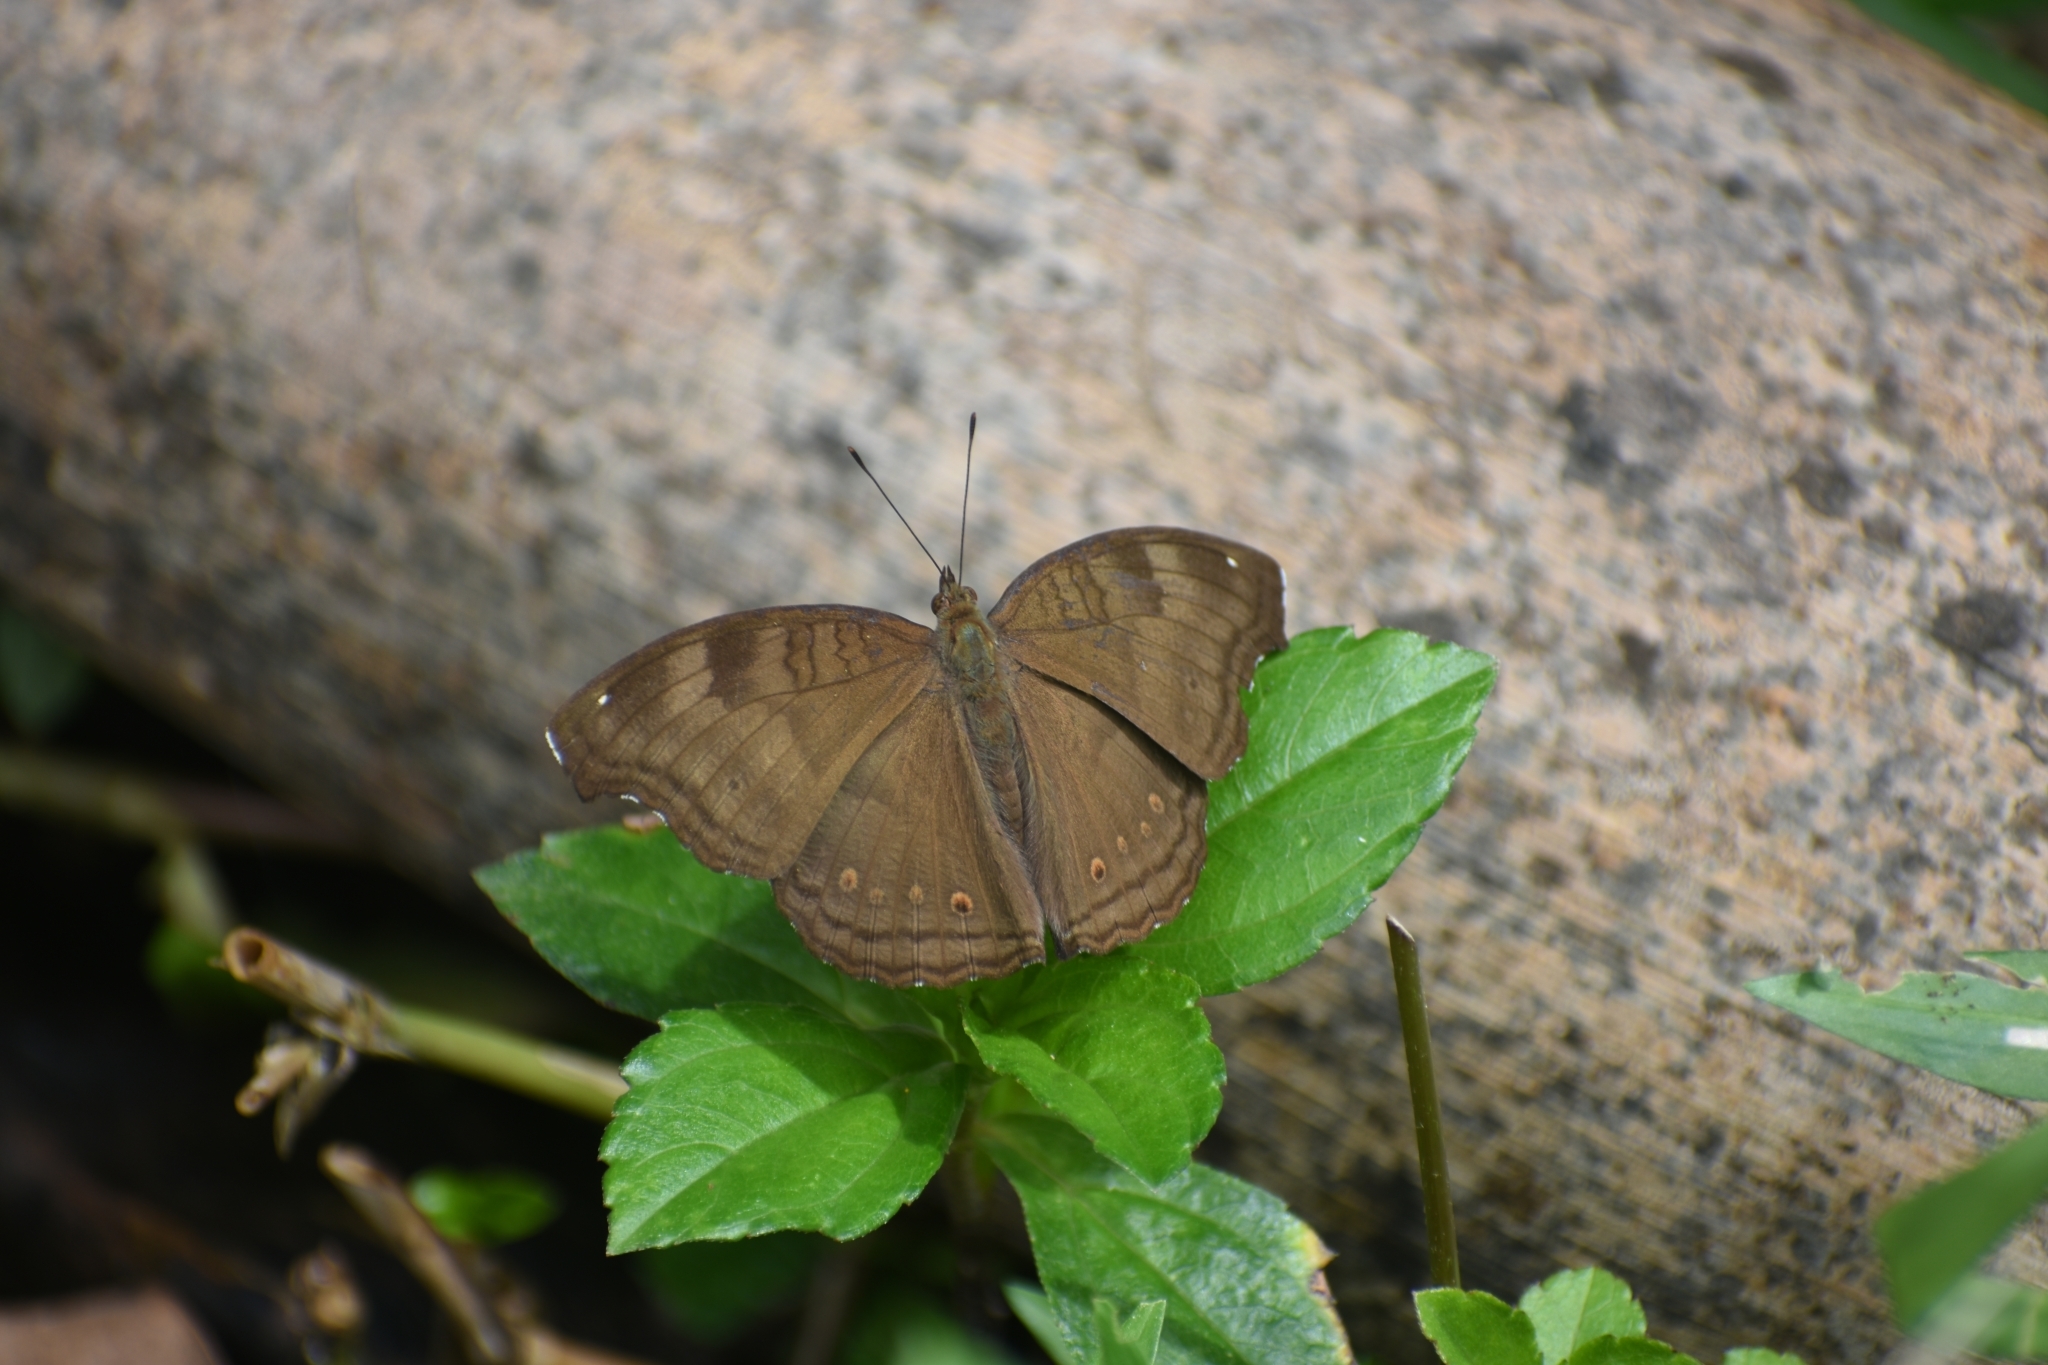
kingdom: Animalia
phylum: Arthropoda
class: Insecta
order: Lepidoptera
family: Nymphalidae
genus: Junonia
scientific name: Junonia iphita
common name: Chocolate pansy
